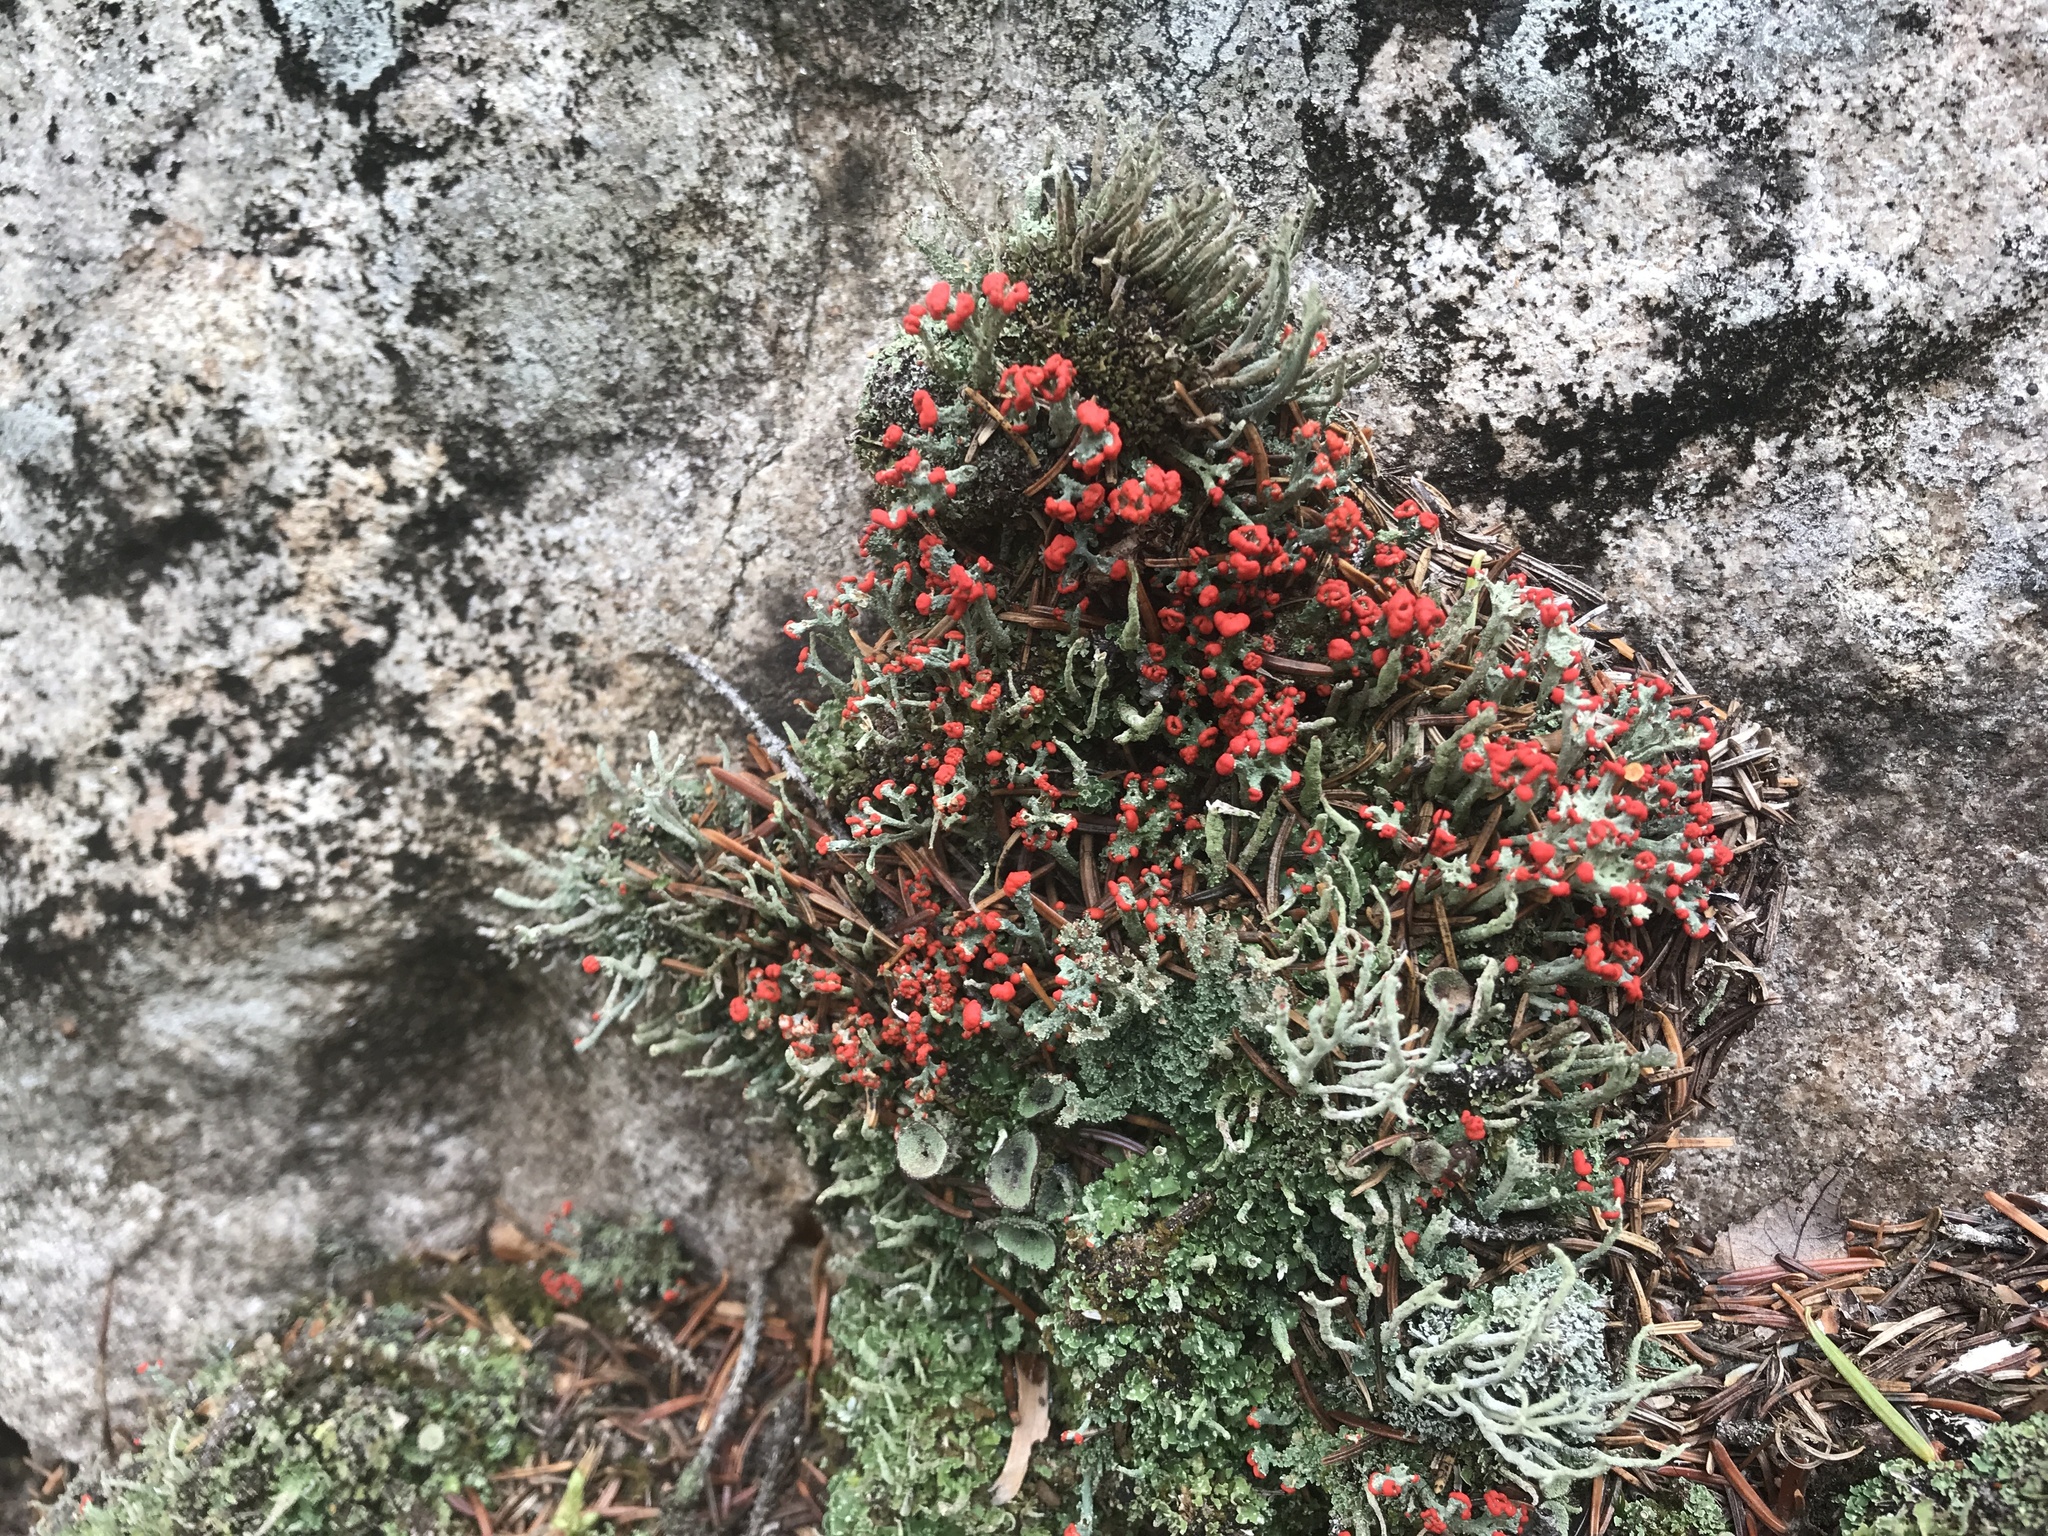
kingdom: Fungi
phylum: Ascomycota
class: Lecanoromycetes
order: Lecanorales
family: Cladoniaceae
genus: Cladonia
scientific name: Cladonia cristatella
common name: British soldier lichen
